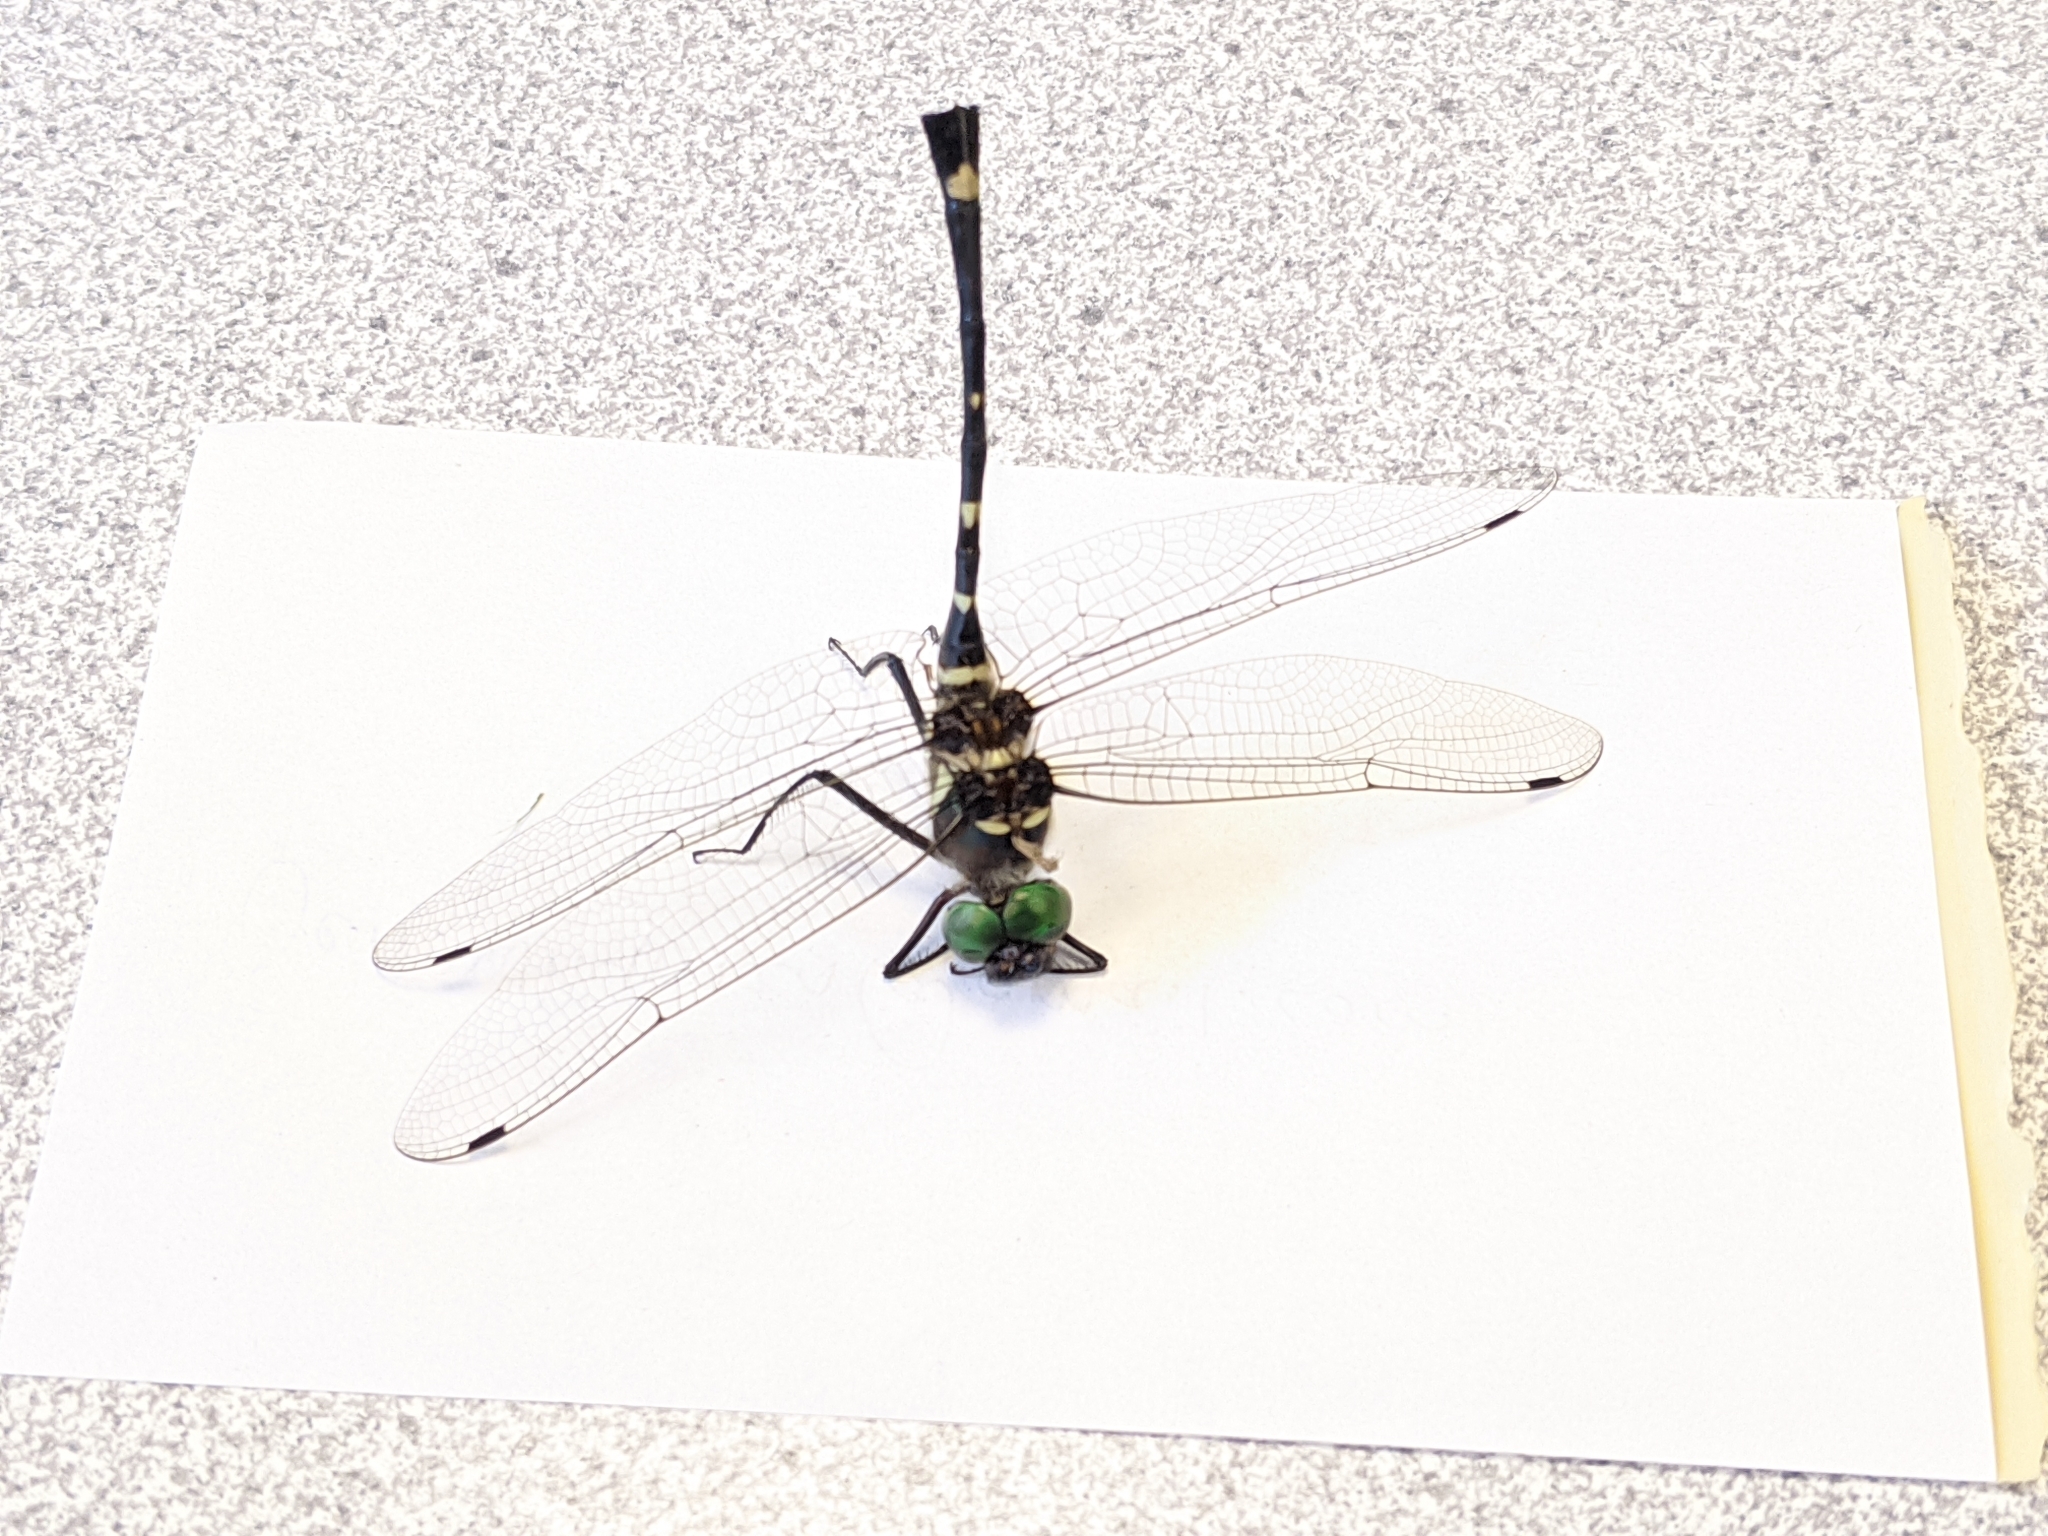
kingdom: Animalia
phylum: Arthropoda
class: Insecta
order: Odonata
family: Macromiidae
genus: Macromia
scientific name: Macromia illinoiensis
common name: Swift river cruiser
